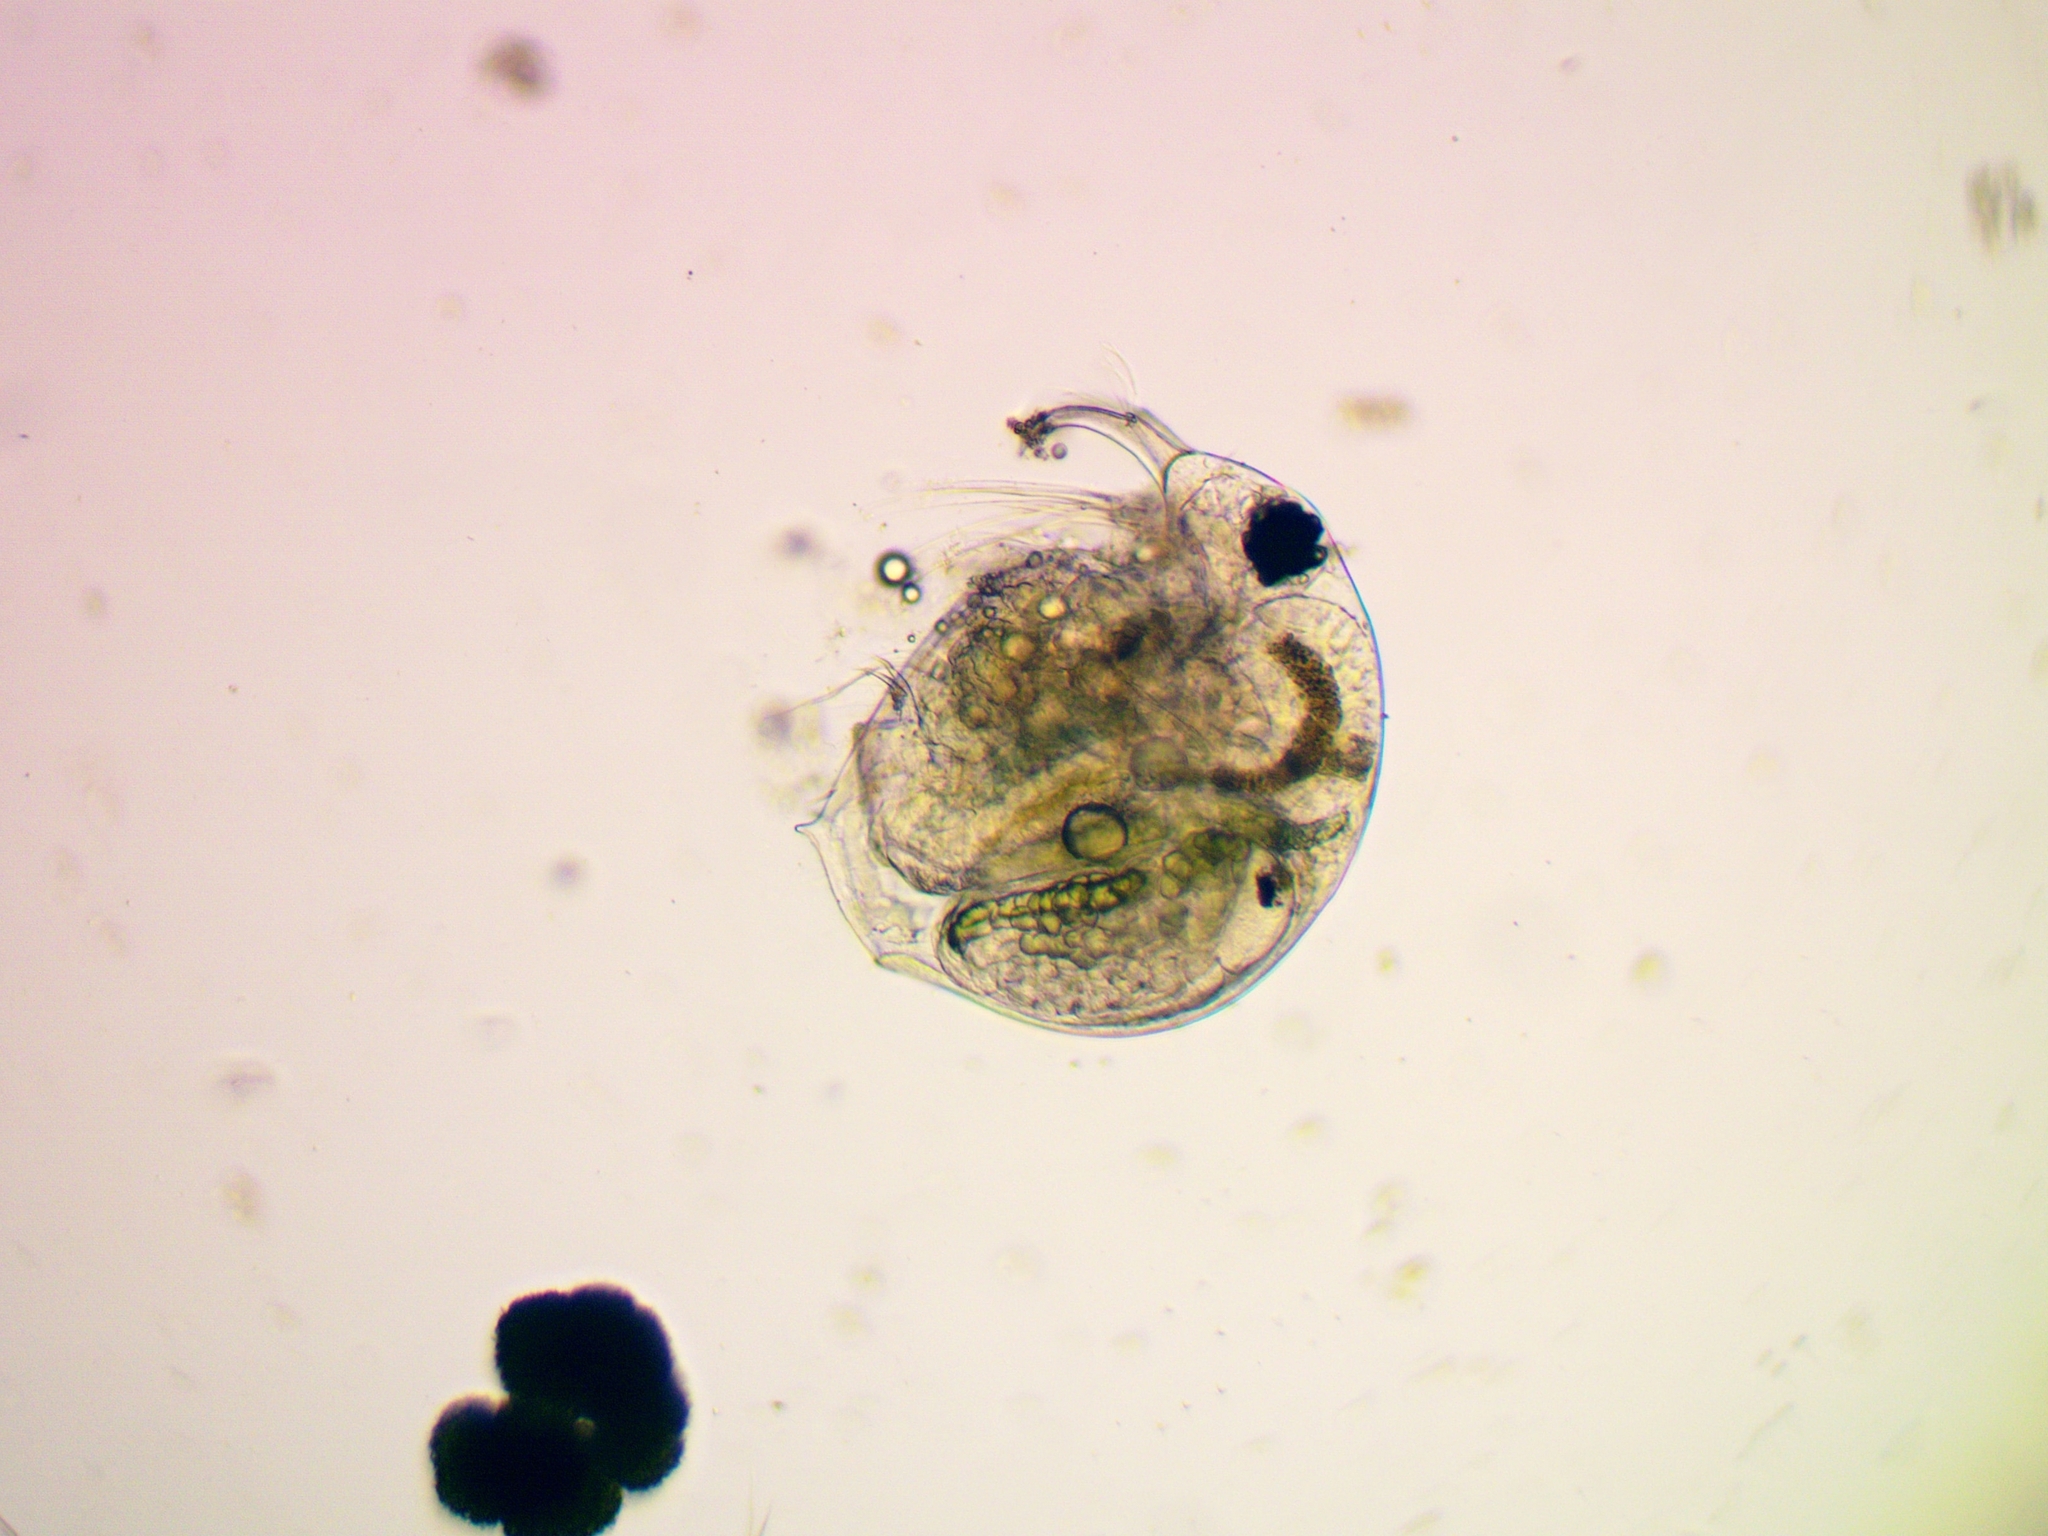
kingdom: Animalia
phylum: Arthropoda
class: Branchiopoda
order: Diplostraca
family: Bosminidae
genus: Bosmina
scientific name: Bosmina longirostris
